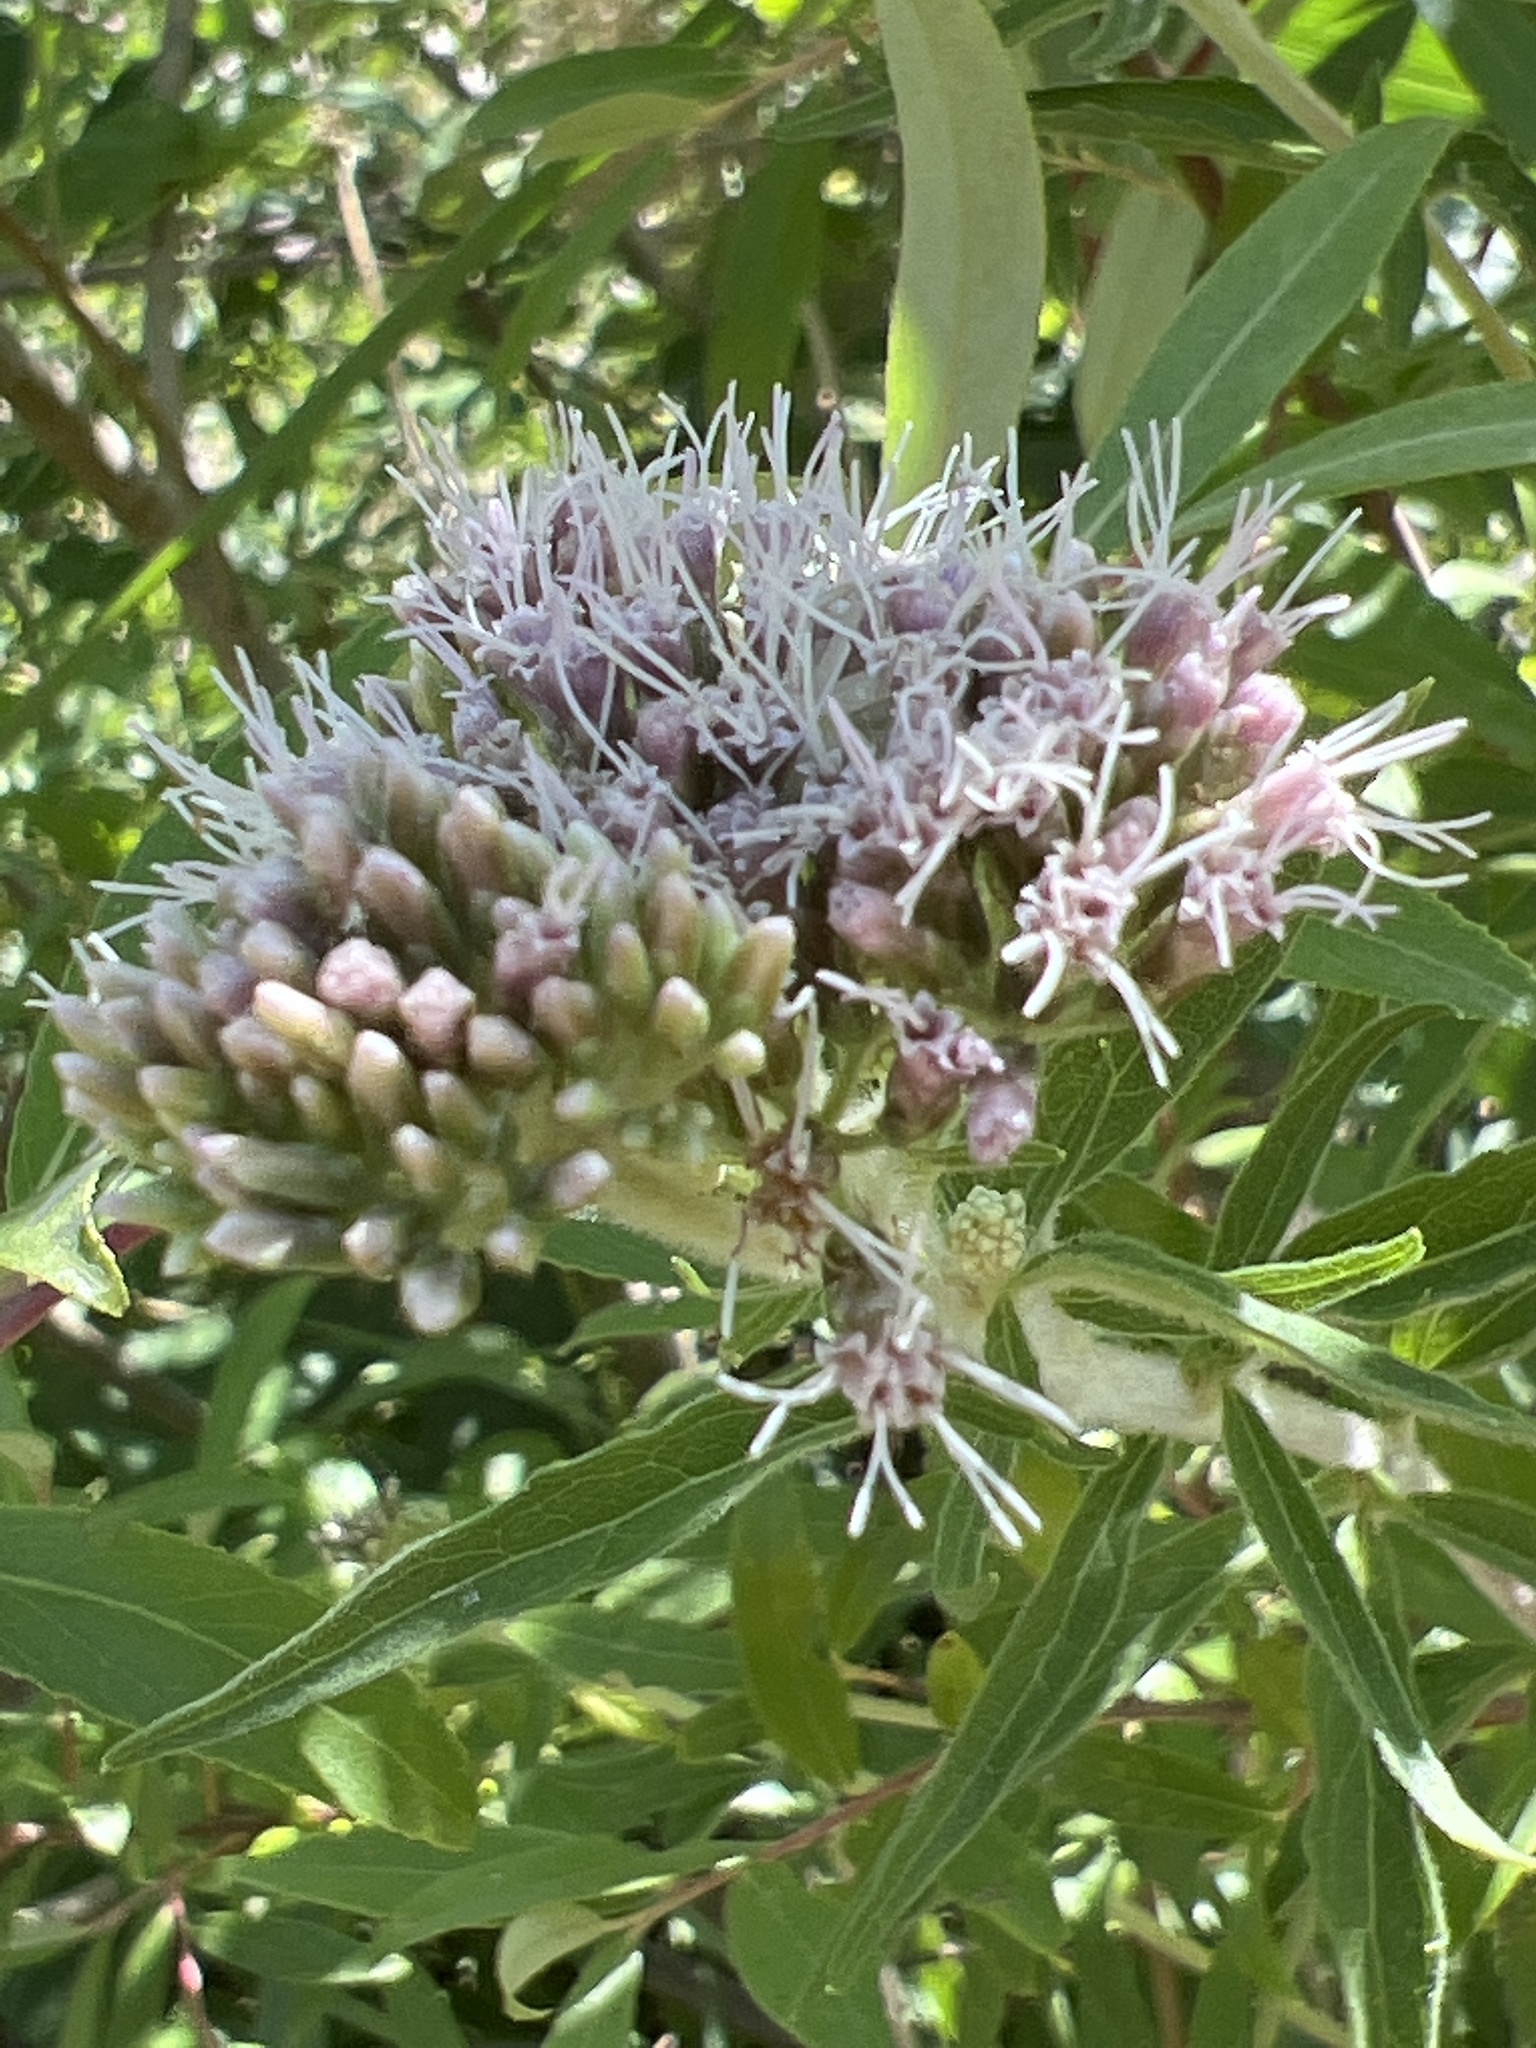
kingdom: Plantae
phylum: Tracheophyta
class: Magnoliopsida
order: Asterales
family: Asteraceae
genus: Eupatorium
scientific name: Eupatorium cannabinum
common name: Hemp-agrimony
